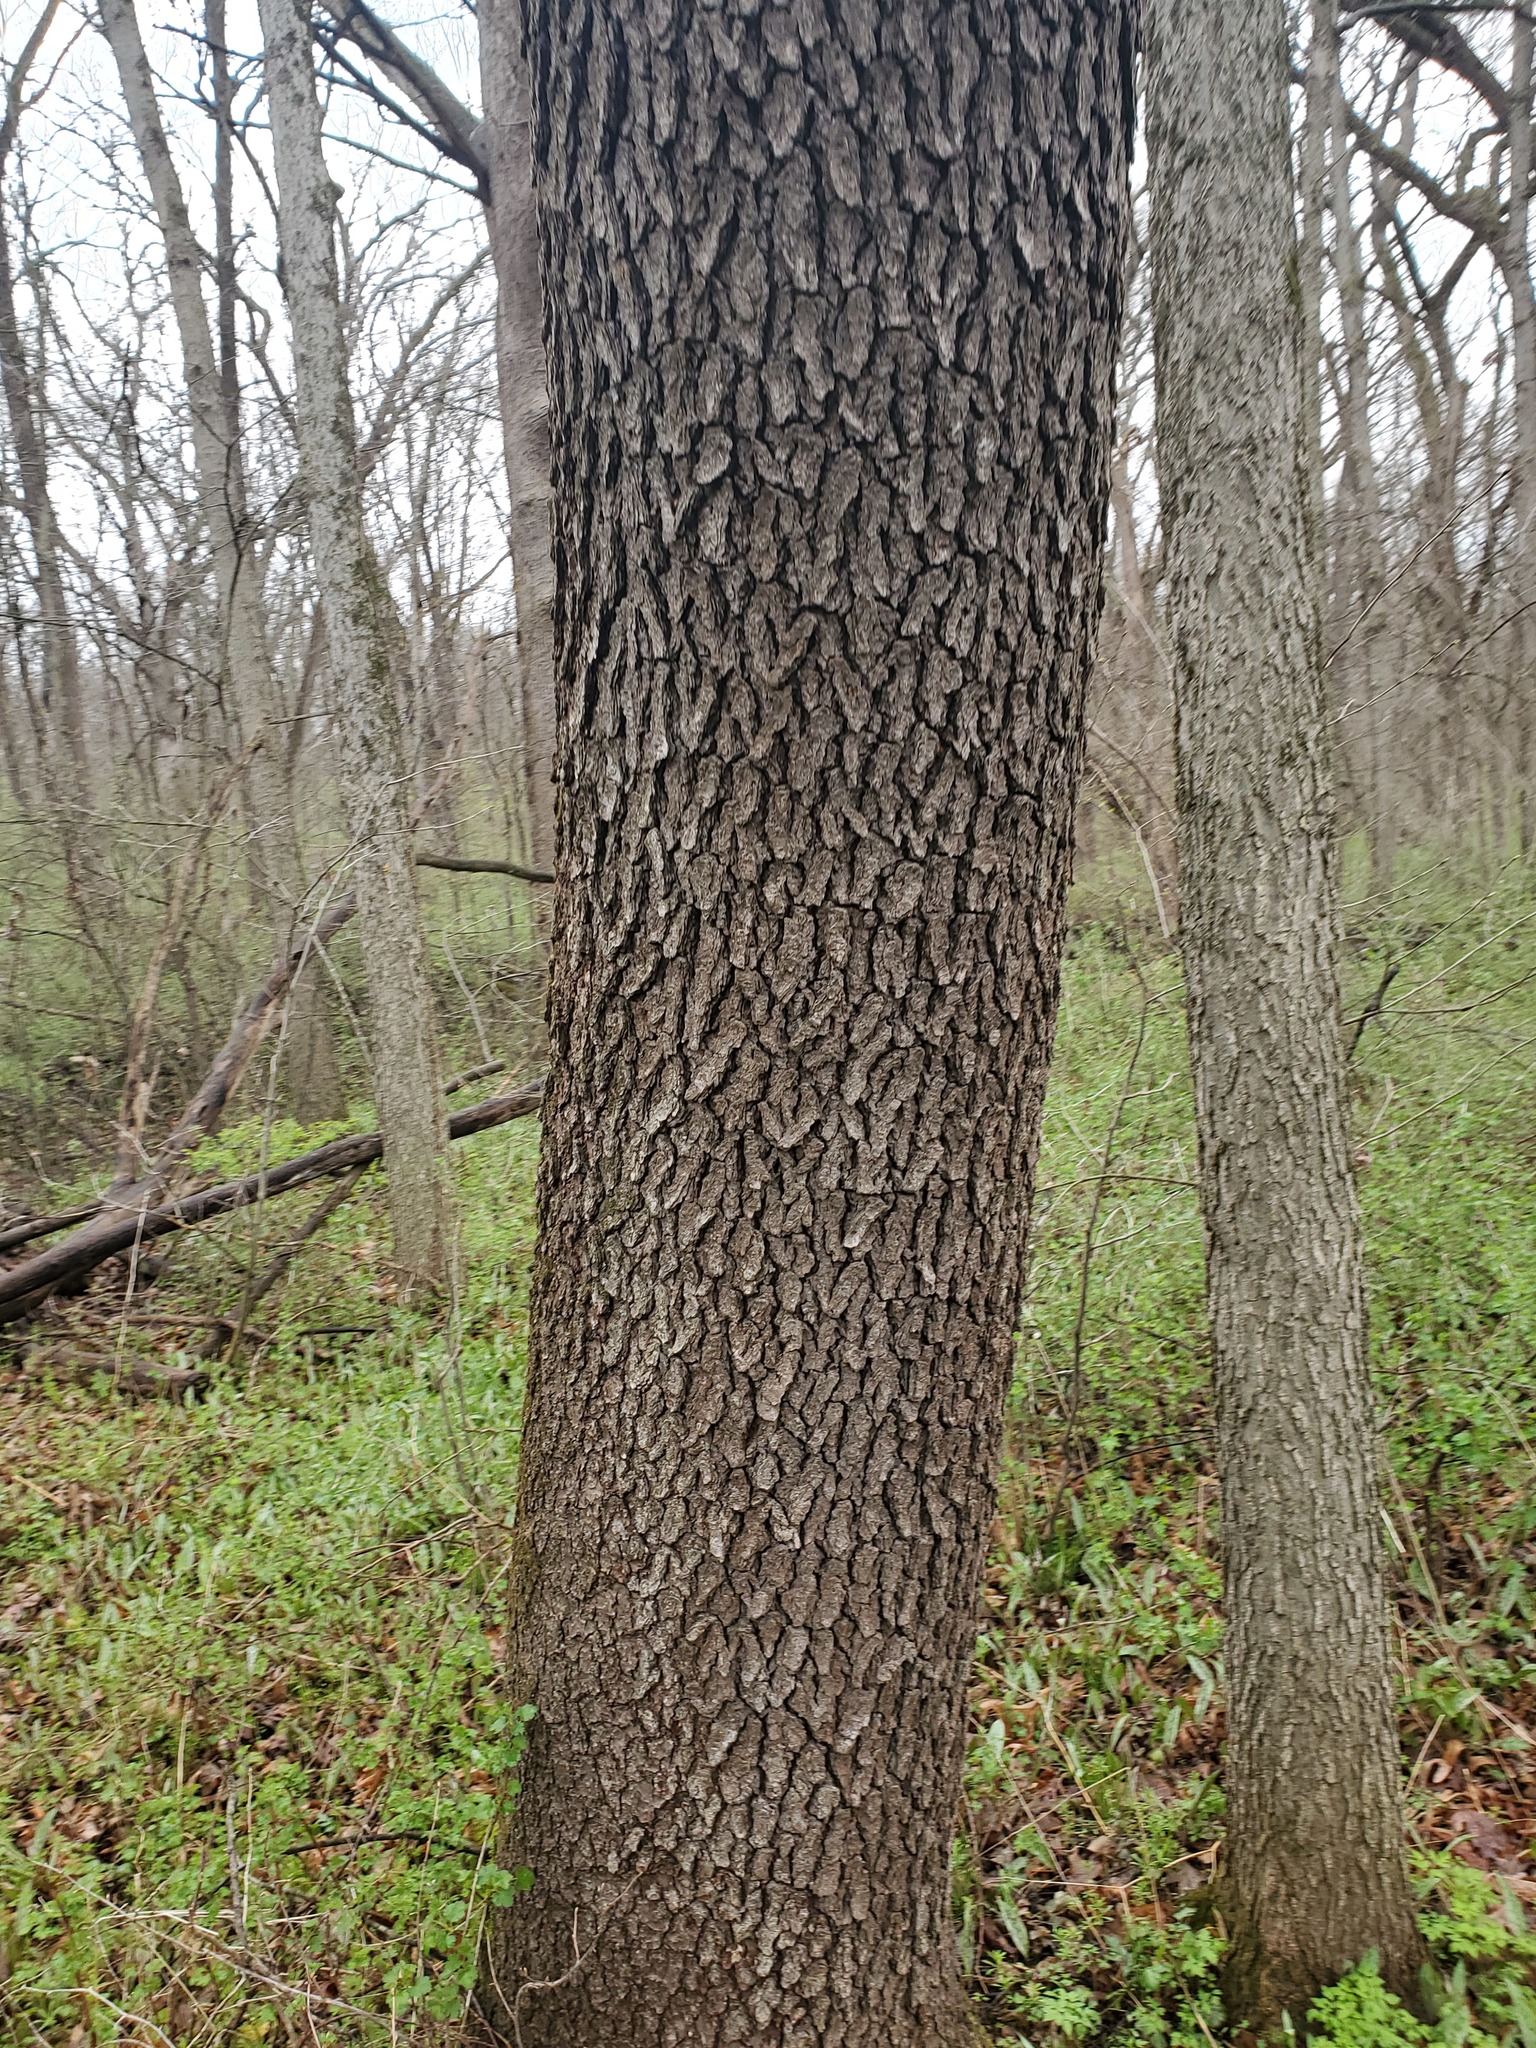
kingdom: Plantae
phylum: Tracheophyta
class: Magnoliopsida
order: Rosales
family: Rosaceae
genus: Prunus
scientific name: Prunus serotina
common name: Black cherry
